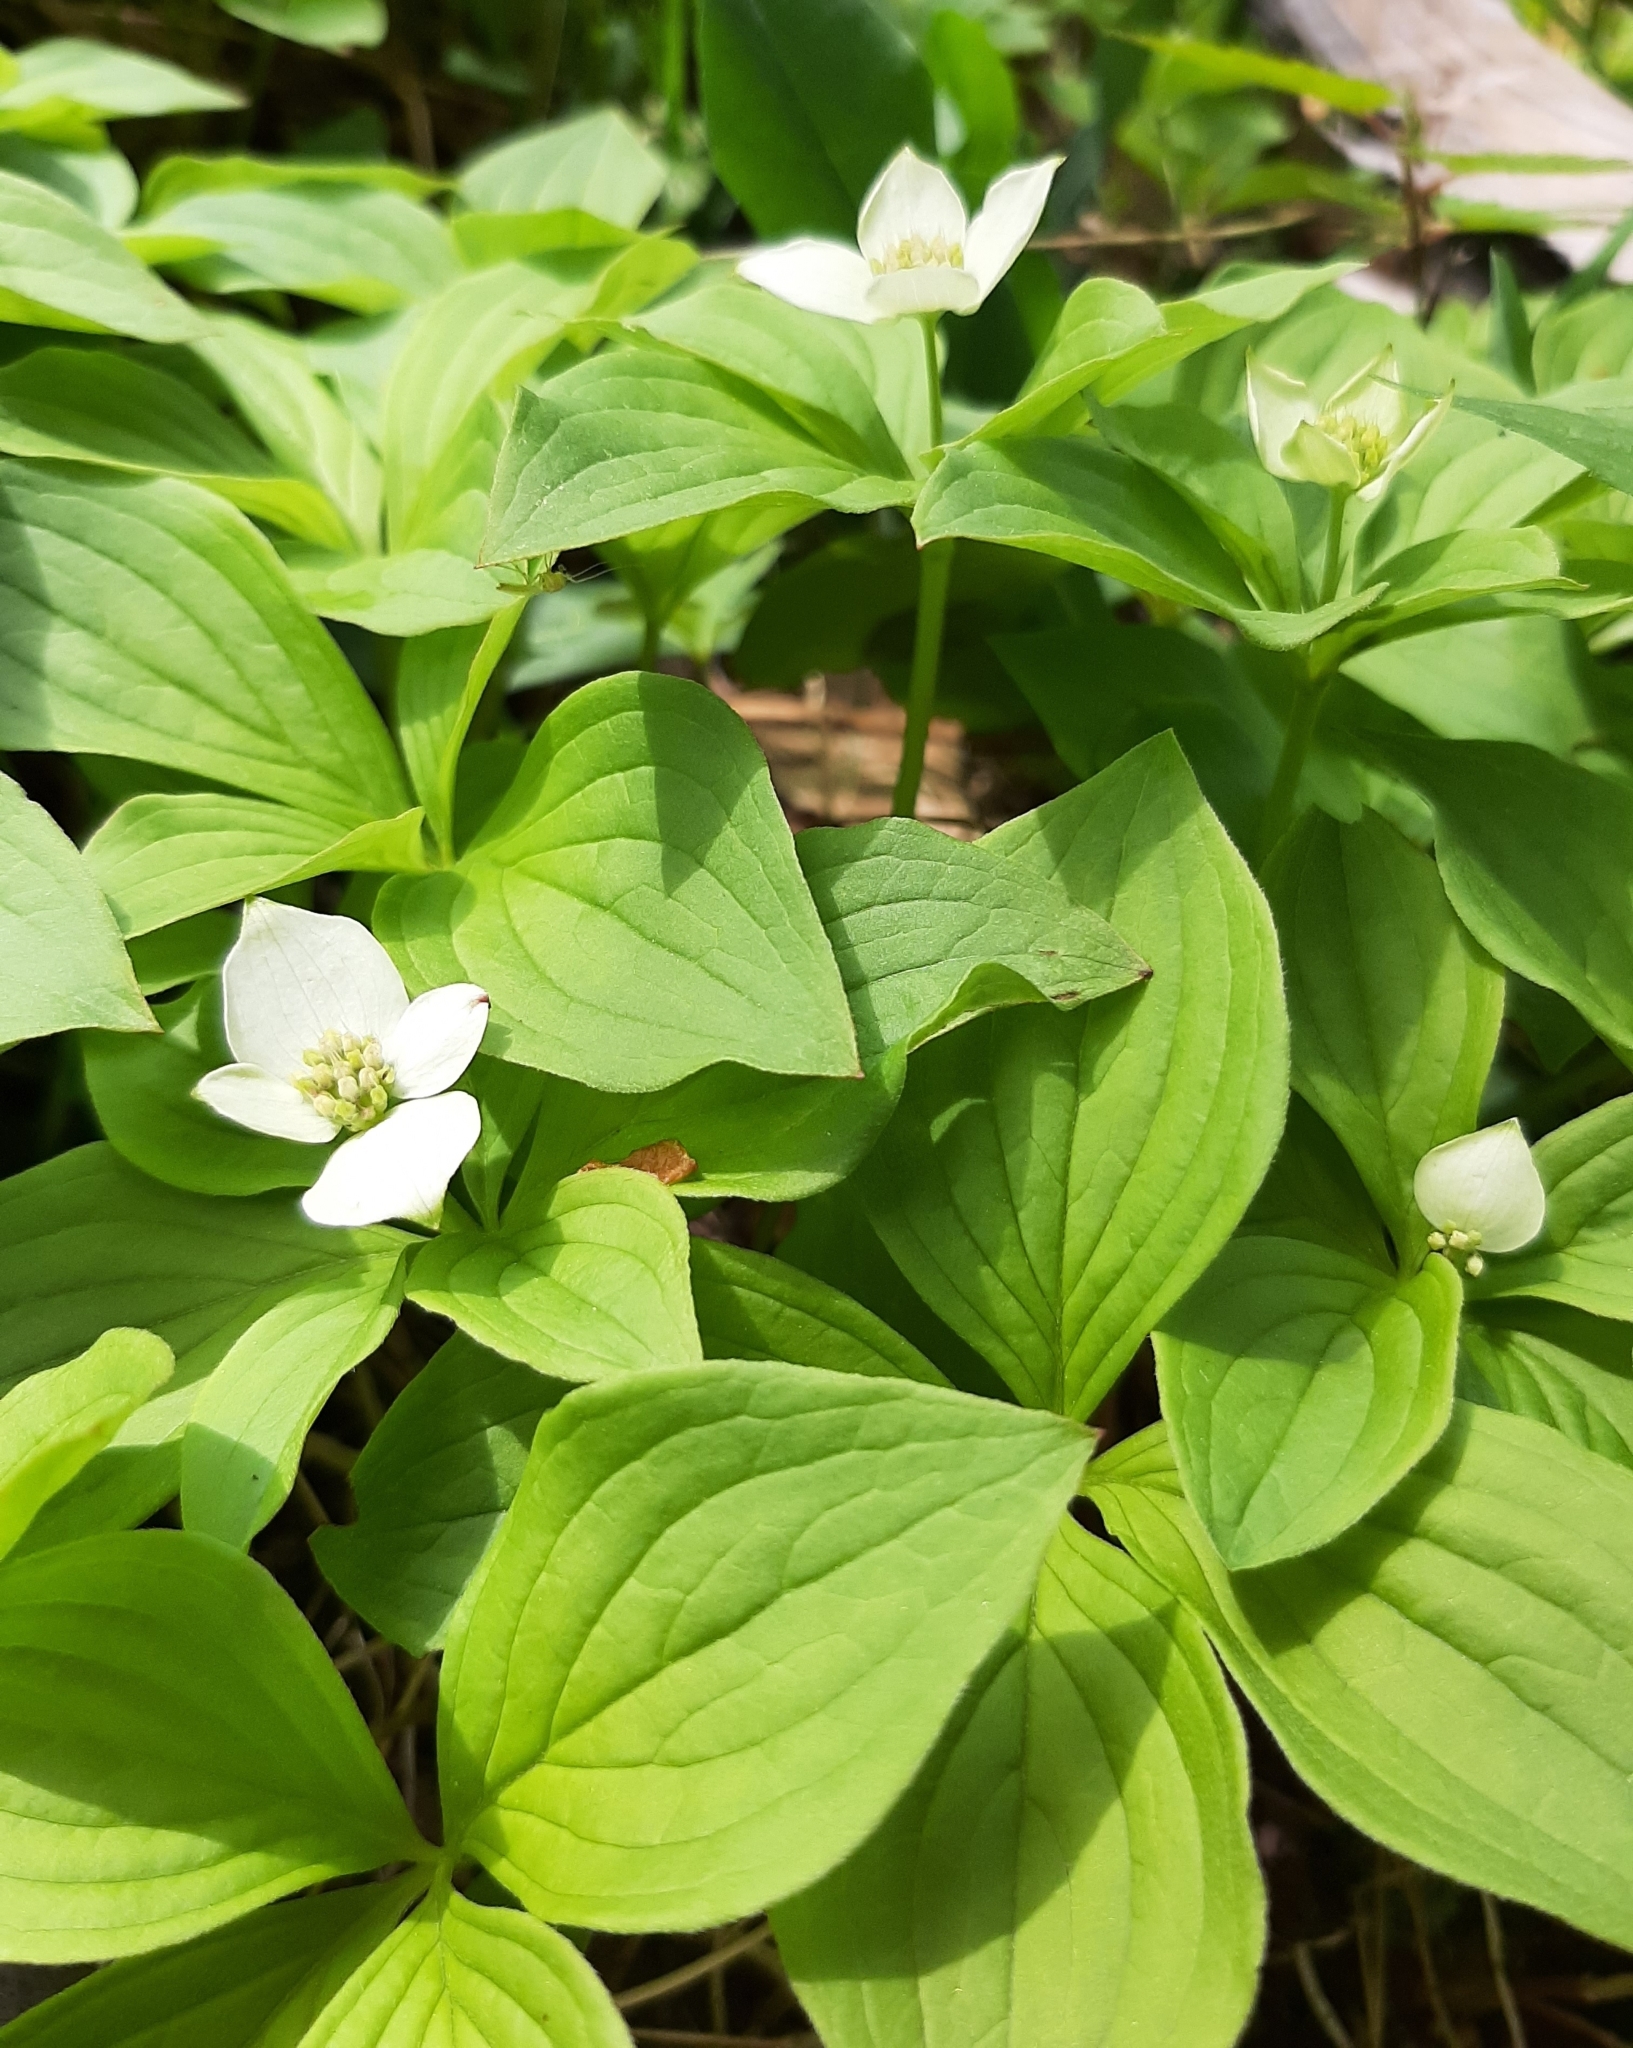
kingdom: Plantae
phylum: Tracheophyta
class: Magnoliopsida
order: Cornales
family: Cornaceae
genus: Cornus
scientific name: Cornus canadensis
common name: Creeping dogwood
